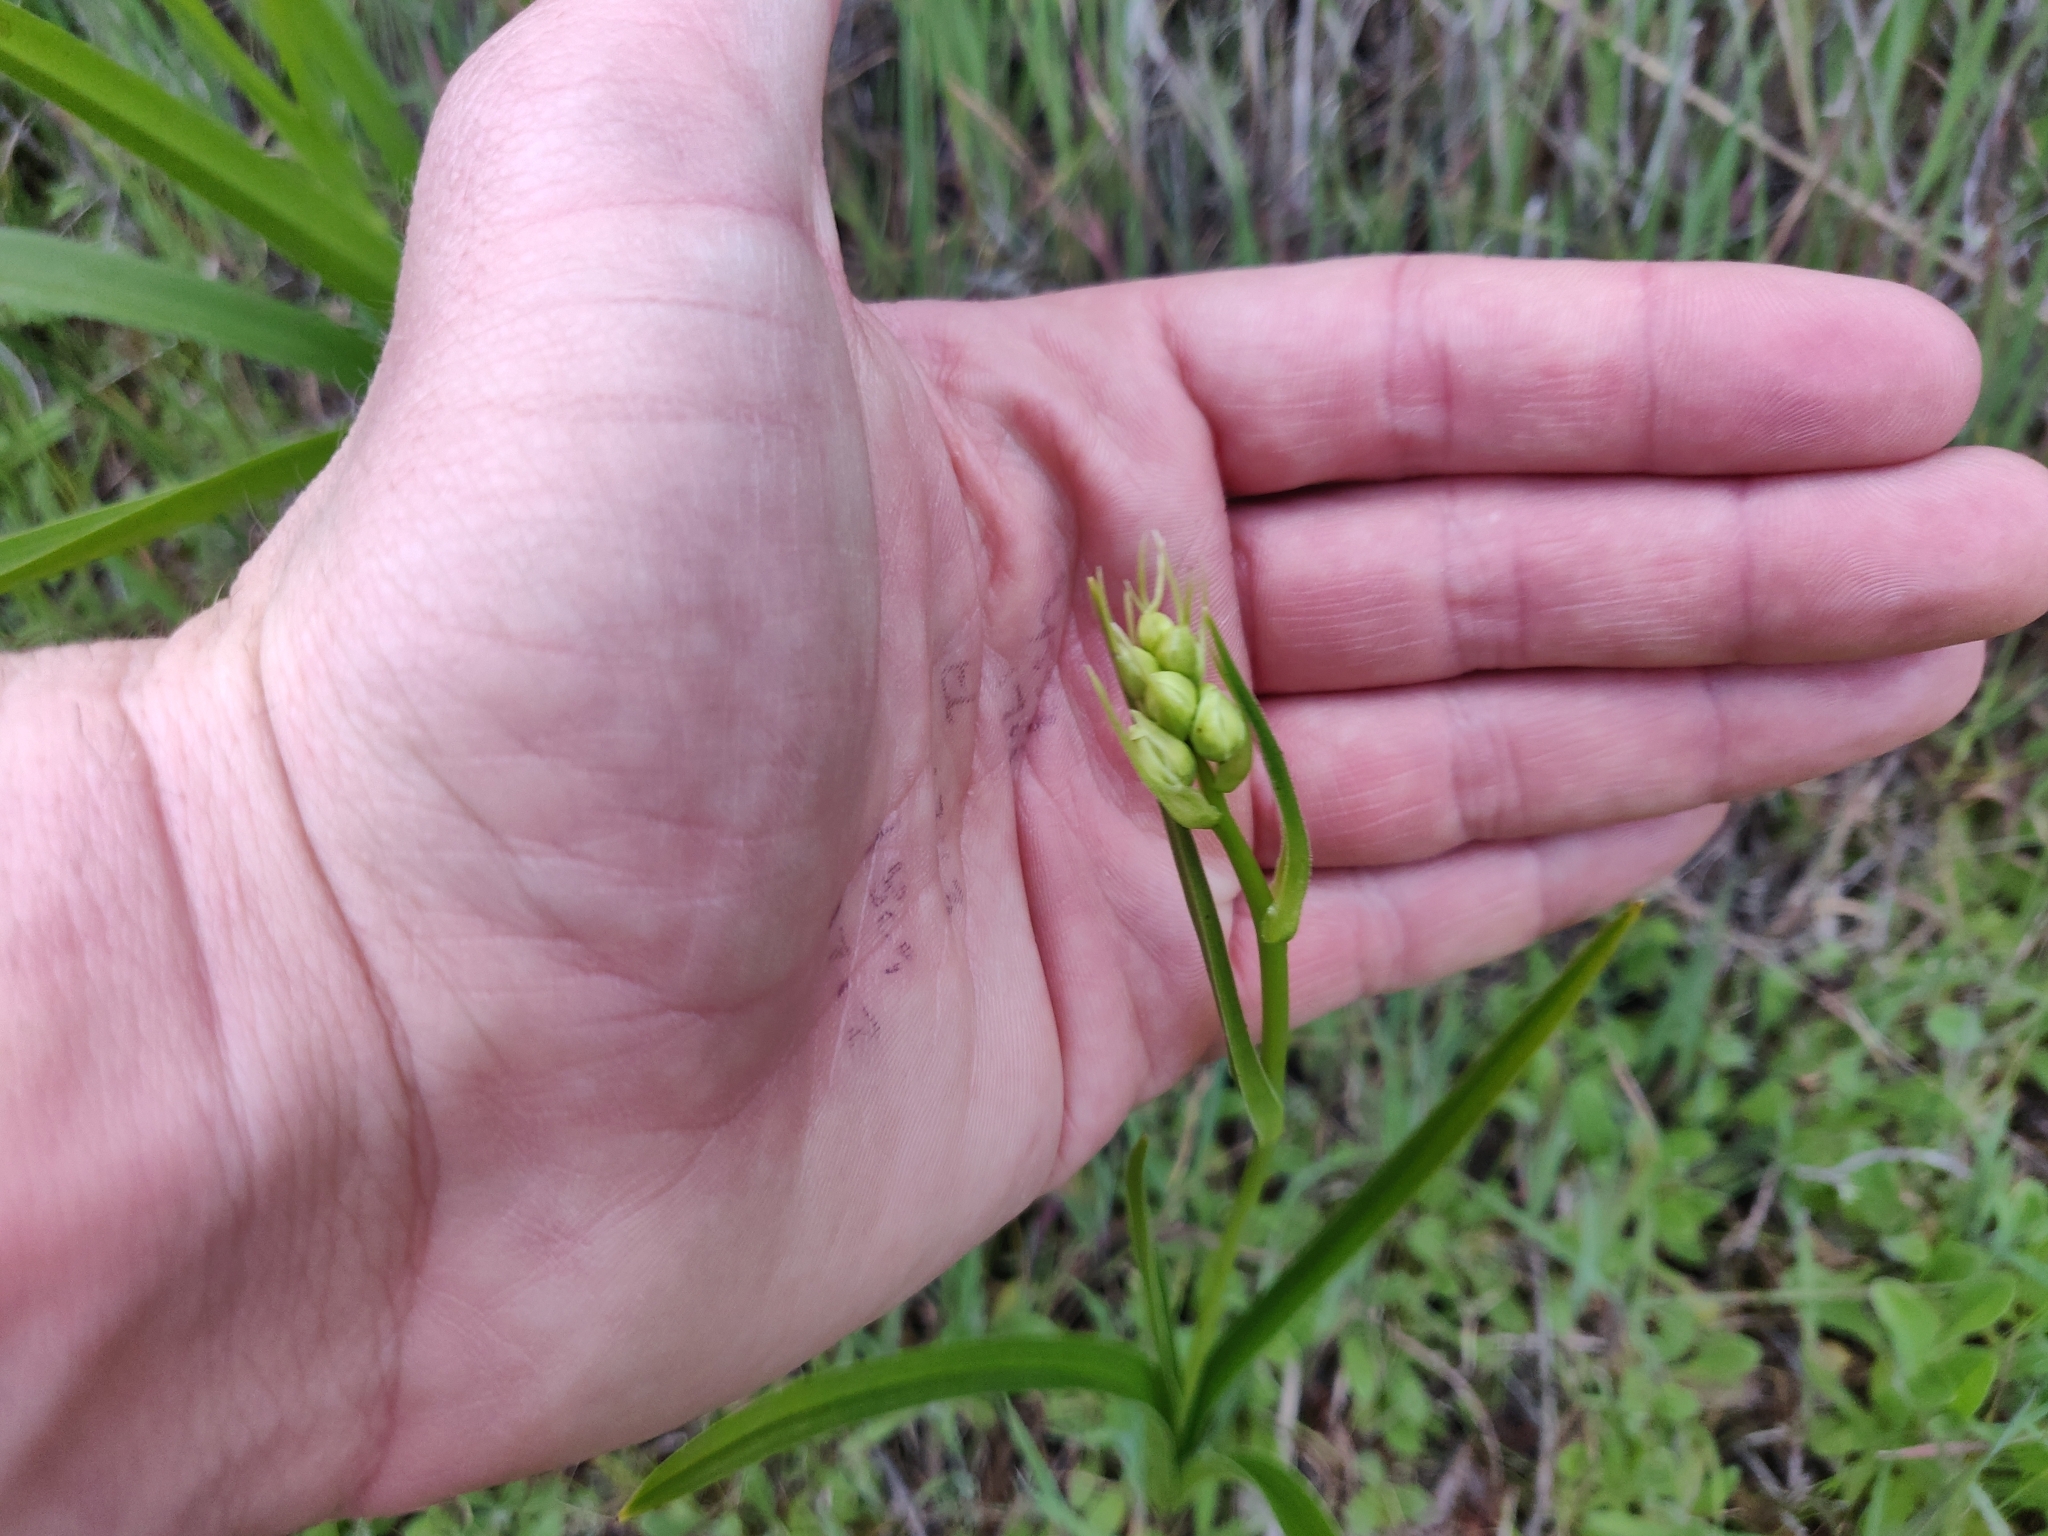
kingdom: Plantae
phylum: Tracheophyta
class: Liliopsida
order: Liliales
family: Melanthiaceae
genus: Toxicoscordion
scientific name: Toxicoscordion fremontii
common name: Fremont's death camas
